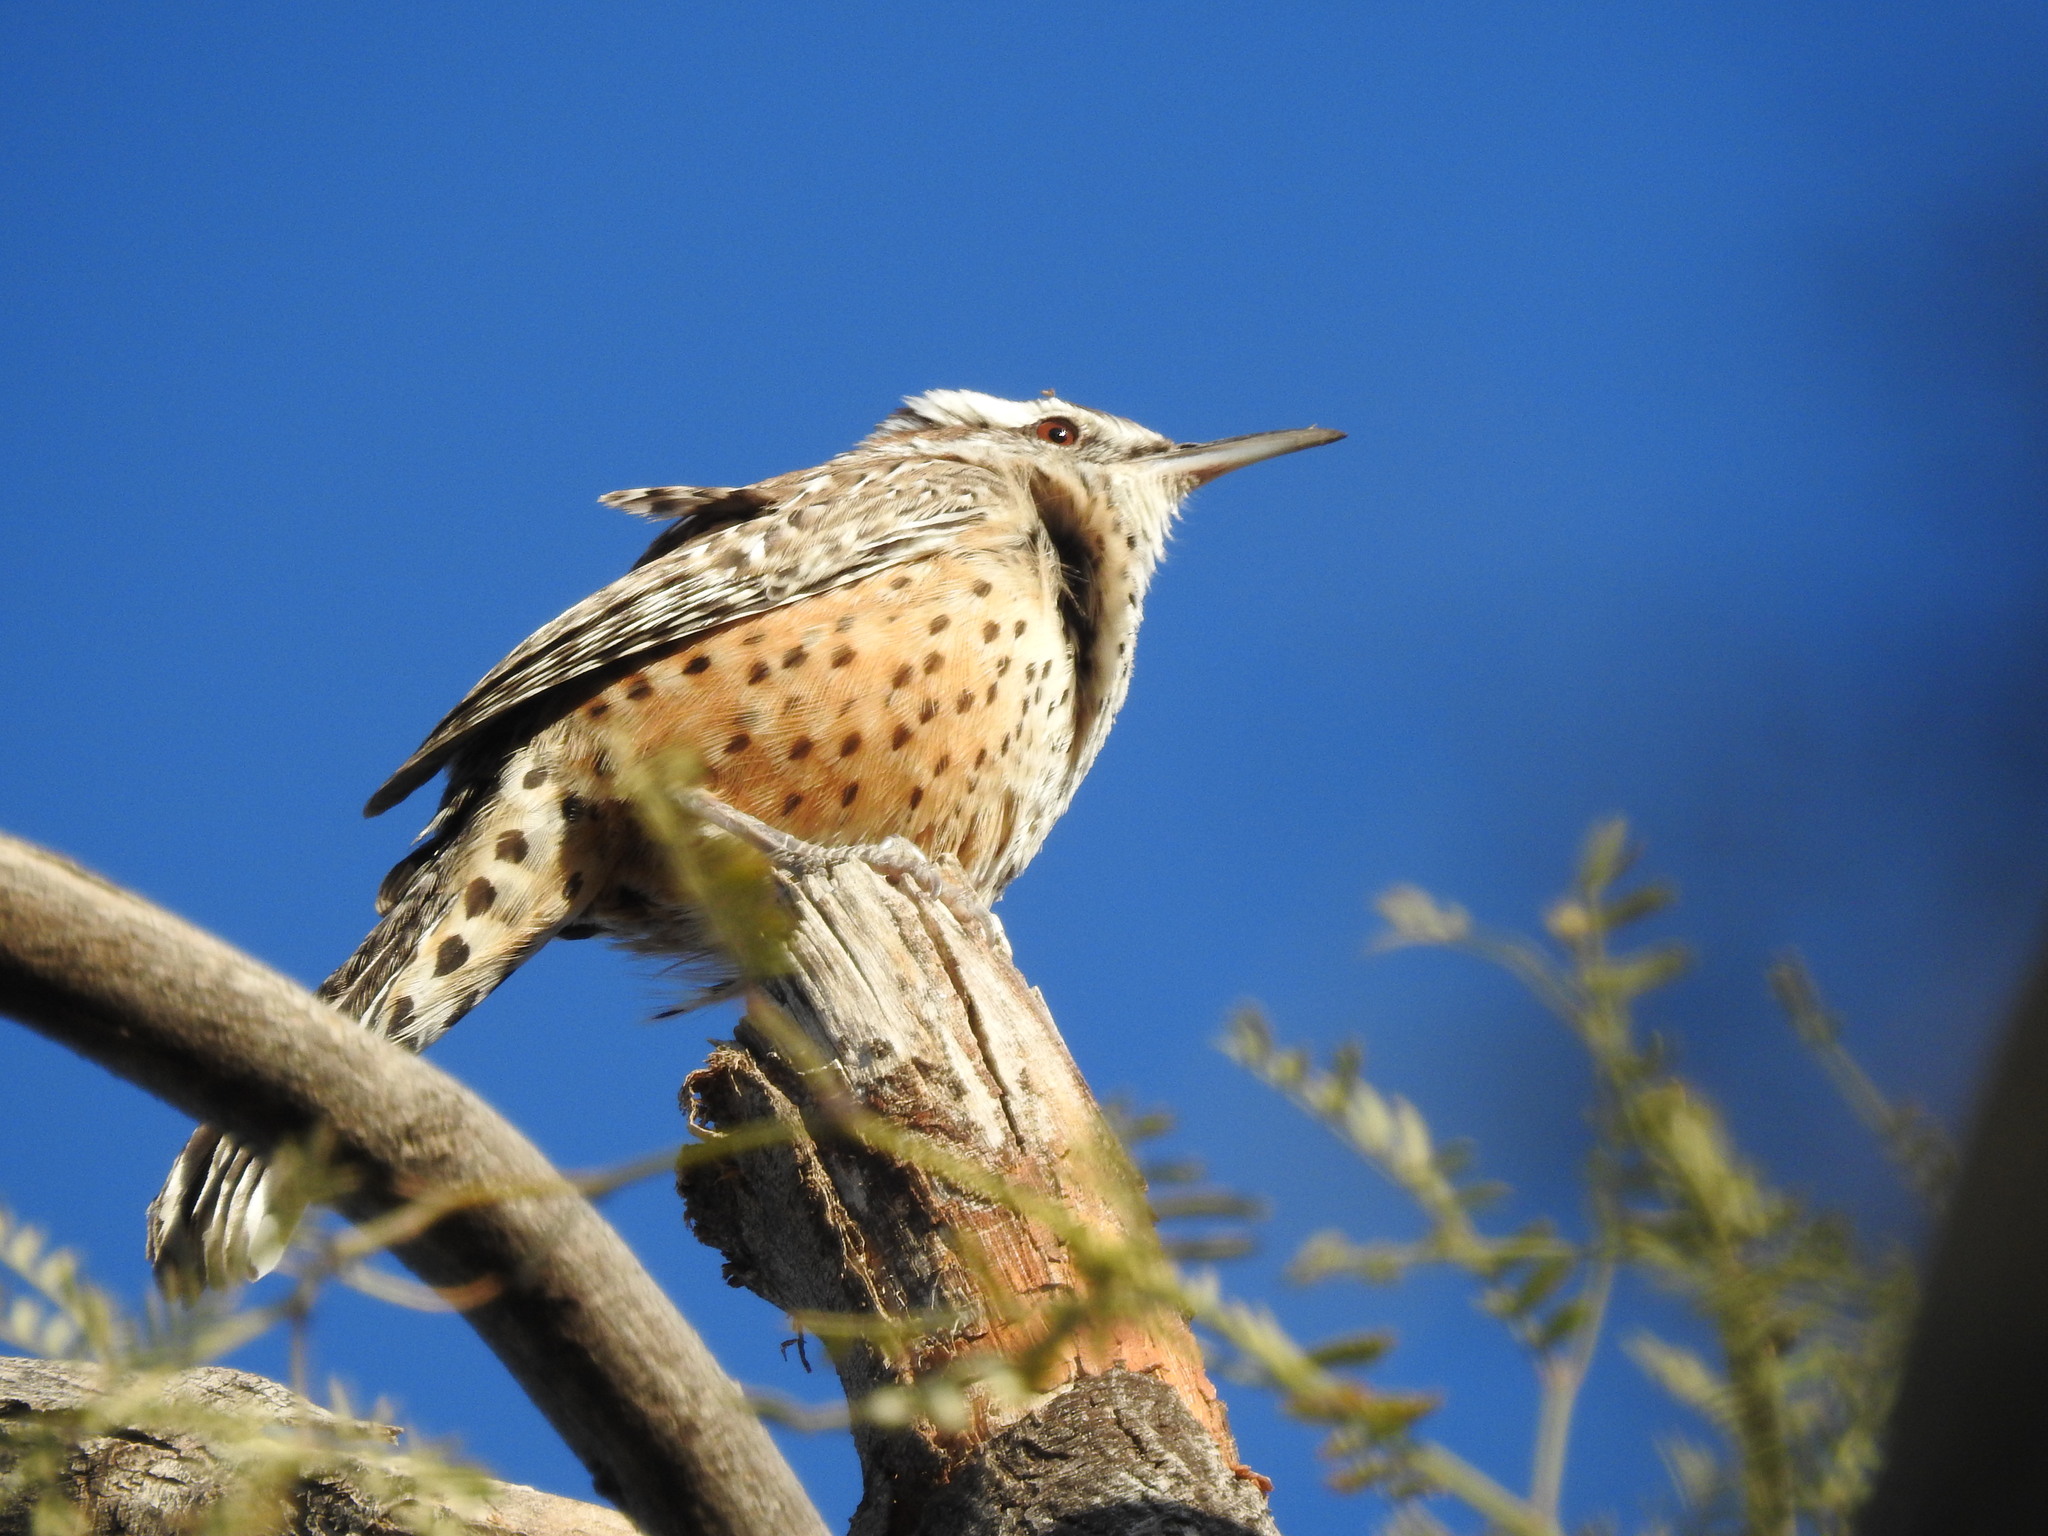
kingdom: Animalia
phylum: Chordata
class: Aves
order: Passeriformes
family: Troglodytidae
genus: Campylorhynchus
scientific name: Campylorhynchus brunneicapillus
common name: Cactus wren
